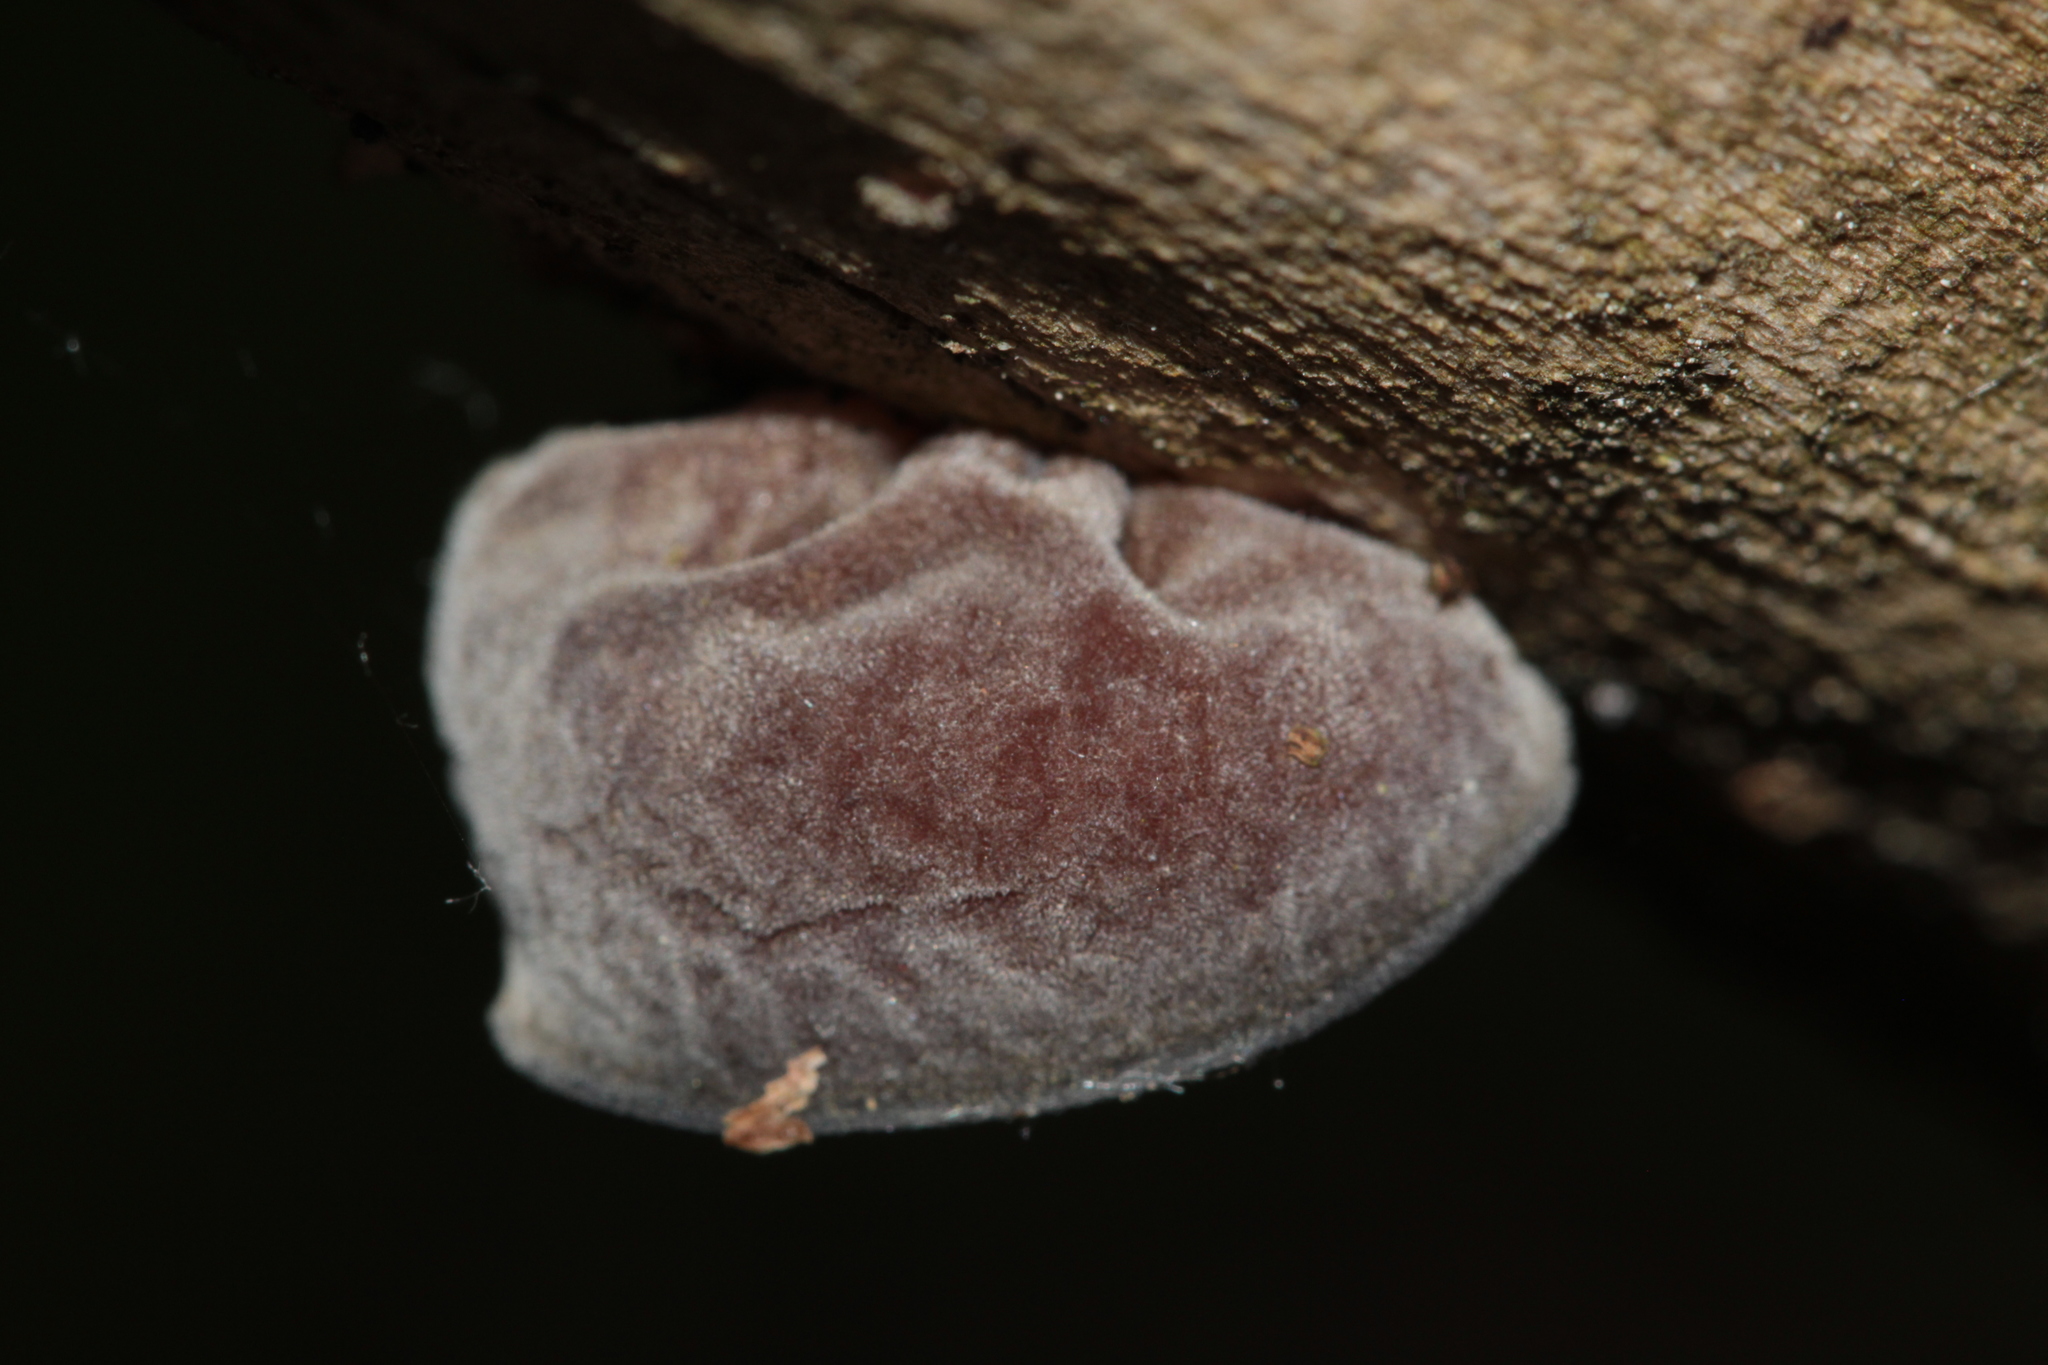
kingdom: Fungi
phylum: Basidiomycota
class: Agaricomycetes
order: Auriculariales
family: Auriculariaceae
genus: Auricularia
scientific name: Auricularia auricula-judae
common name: Jelly ear
